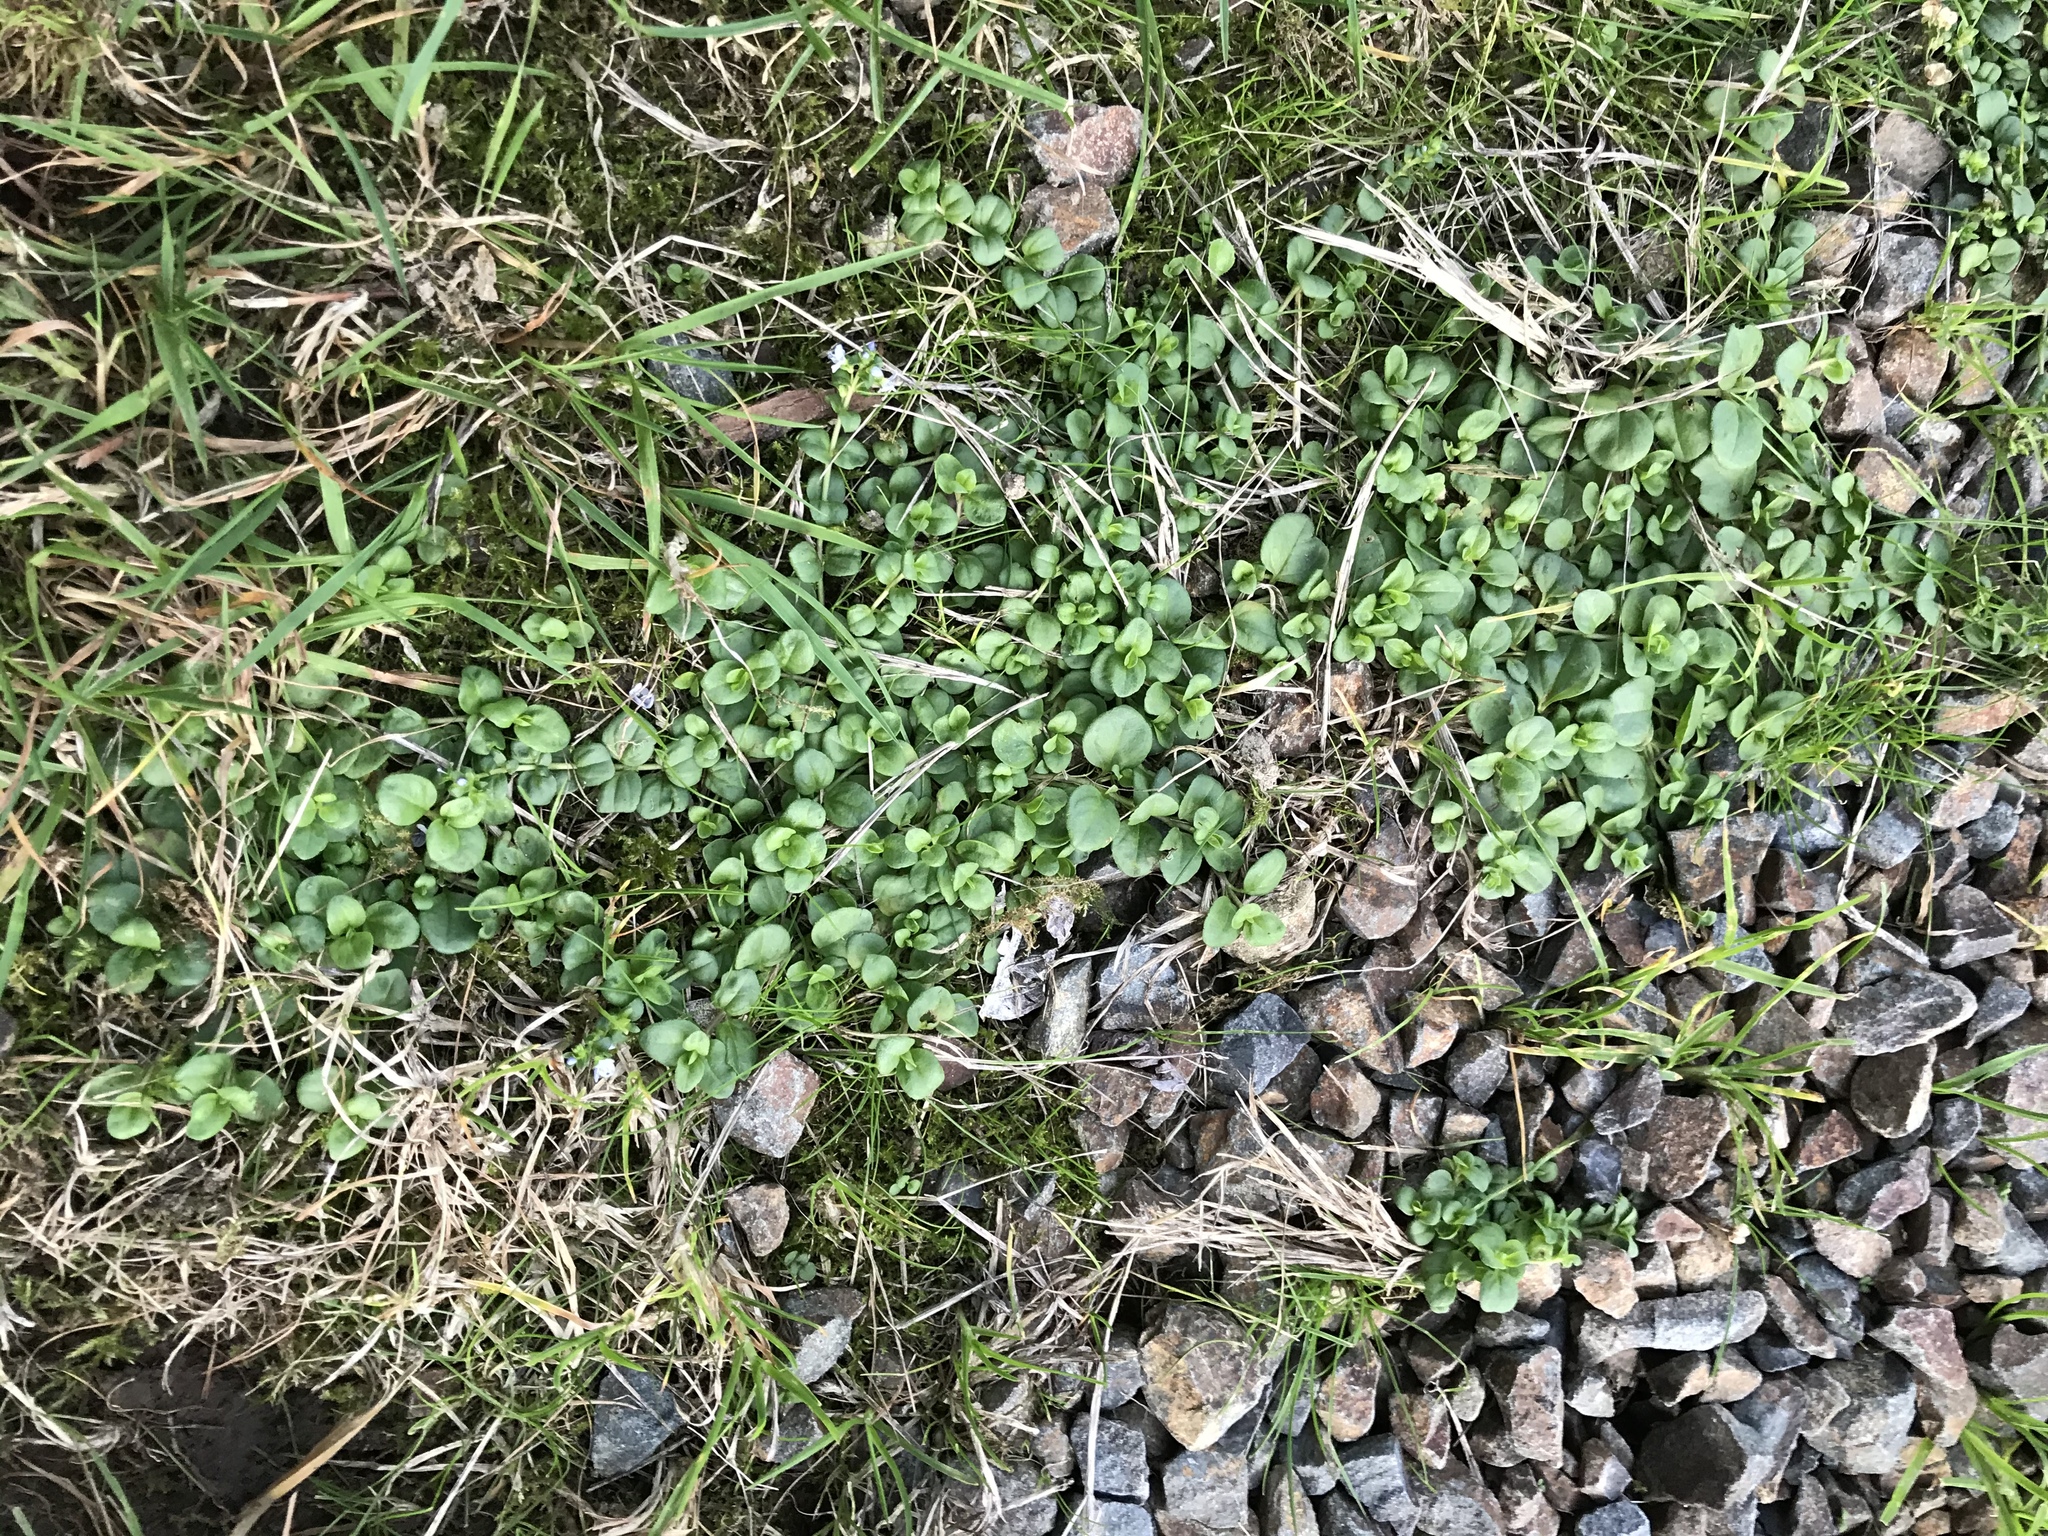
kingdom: Plantae
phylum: Tracheophyta
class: Magnoliopsida
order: Lamiales
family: Plantaginaceae
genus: Veronica
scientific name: Veronica serpyllifolia
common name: Thyme-leaved speedwell
